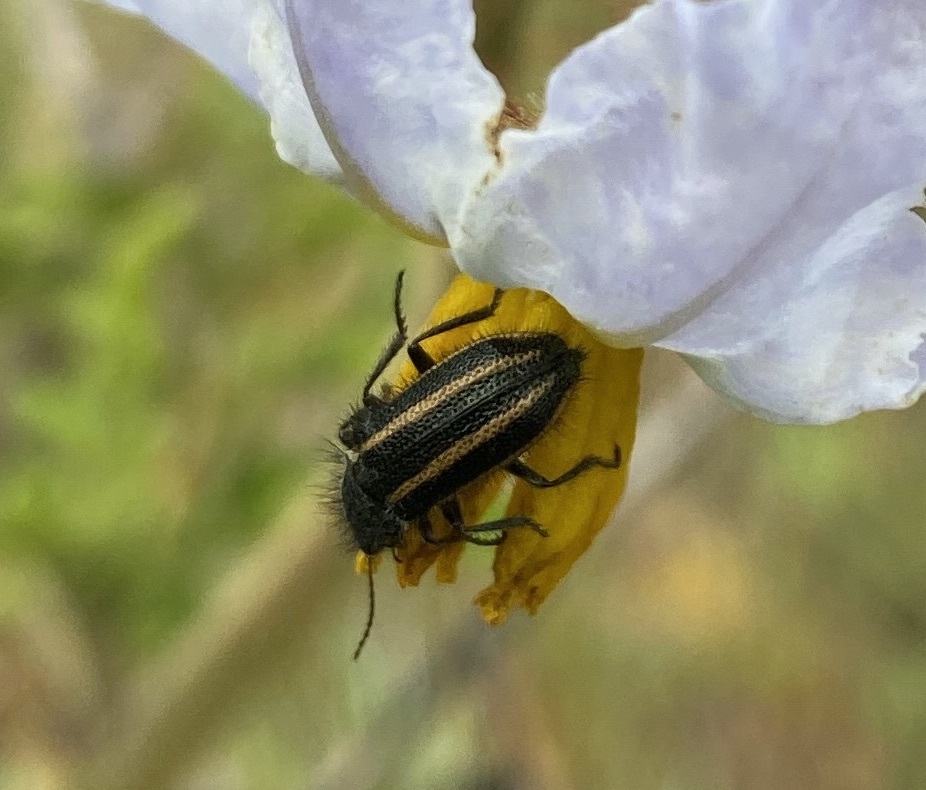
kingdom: Animalia
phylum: Arthropoda
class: Insecta
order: Coleoptera
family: Melyridae
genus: Astylus
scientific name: Astylus
